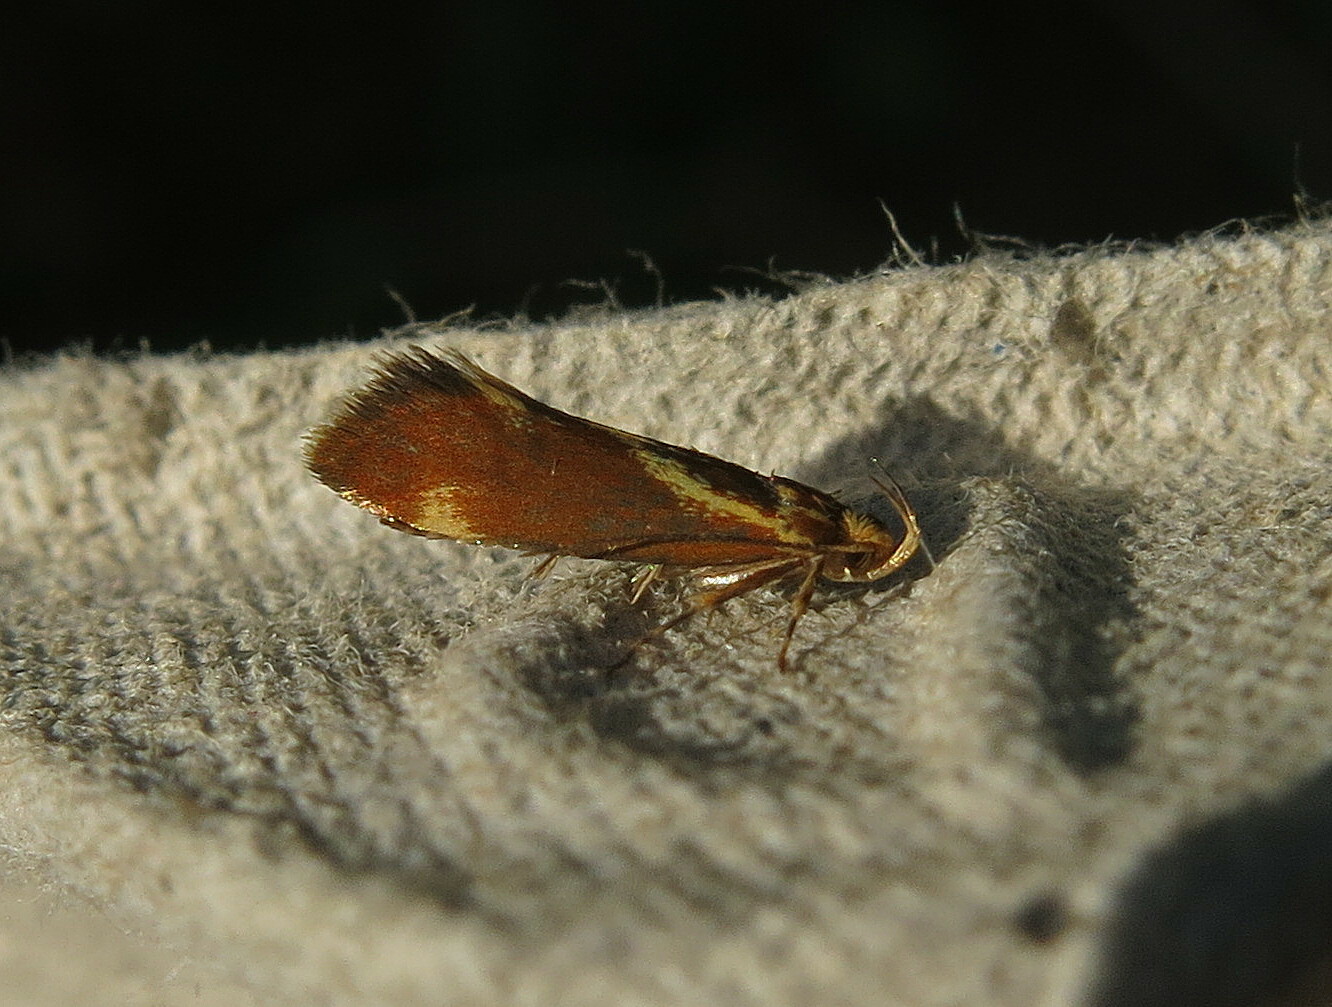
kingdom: Animalia
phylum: Arthropoda
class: Insecta
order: Lepidoptera
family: Oecophoridae
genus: Borkhausenia
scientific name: Borkhausenia italica
